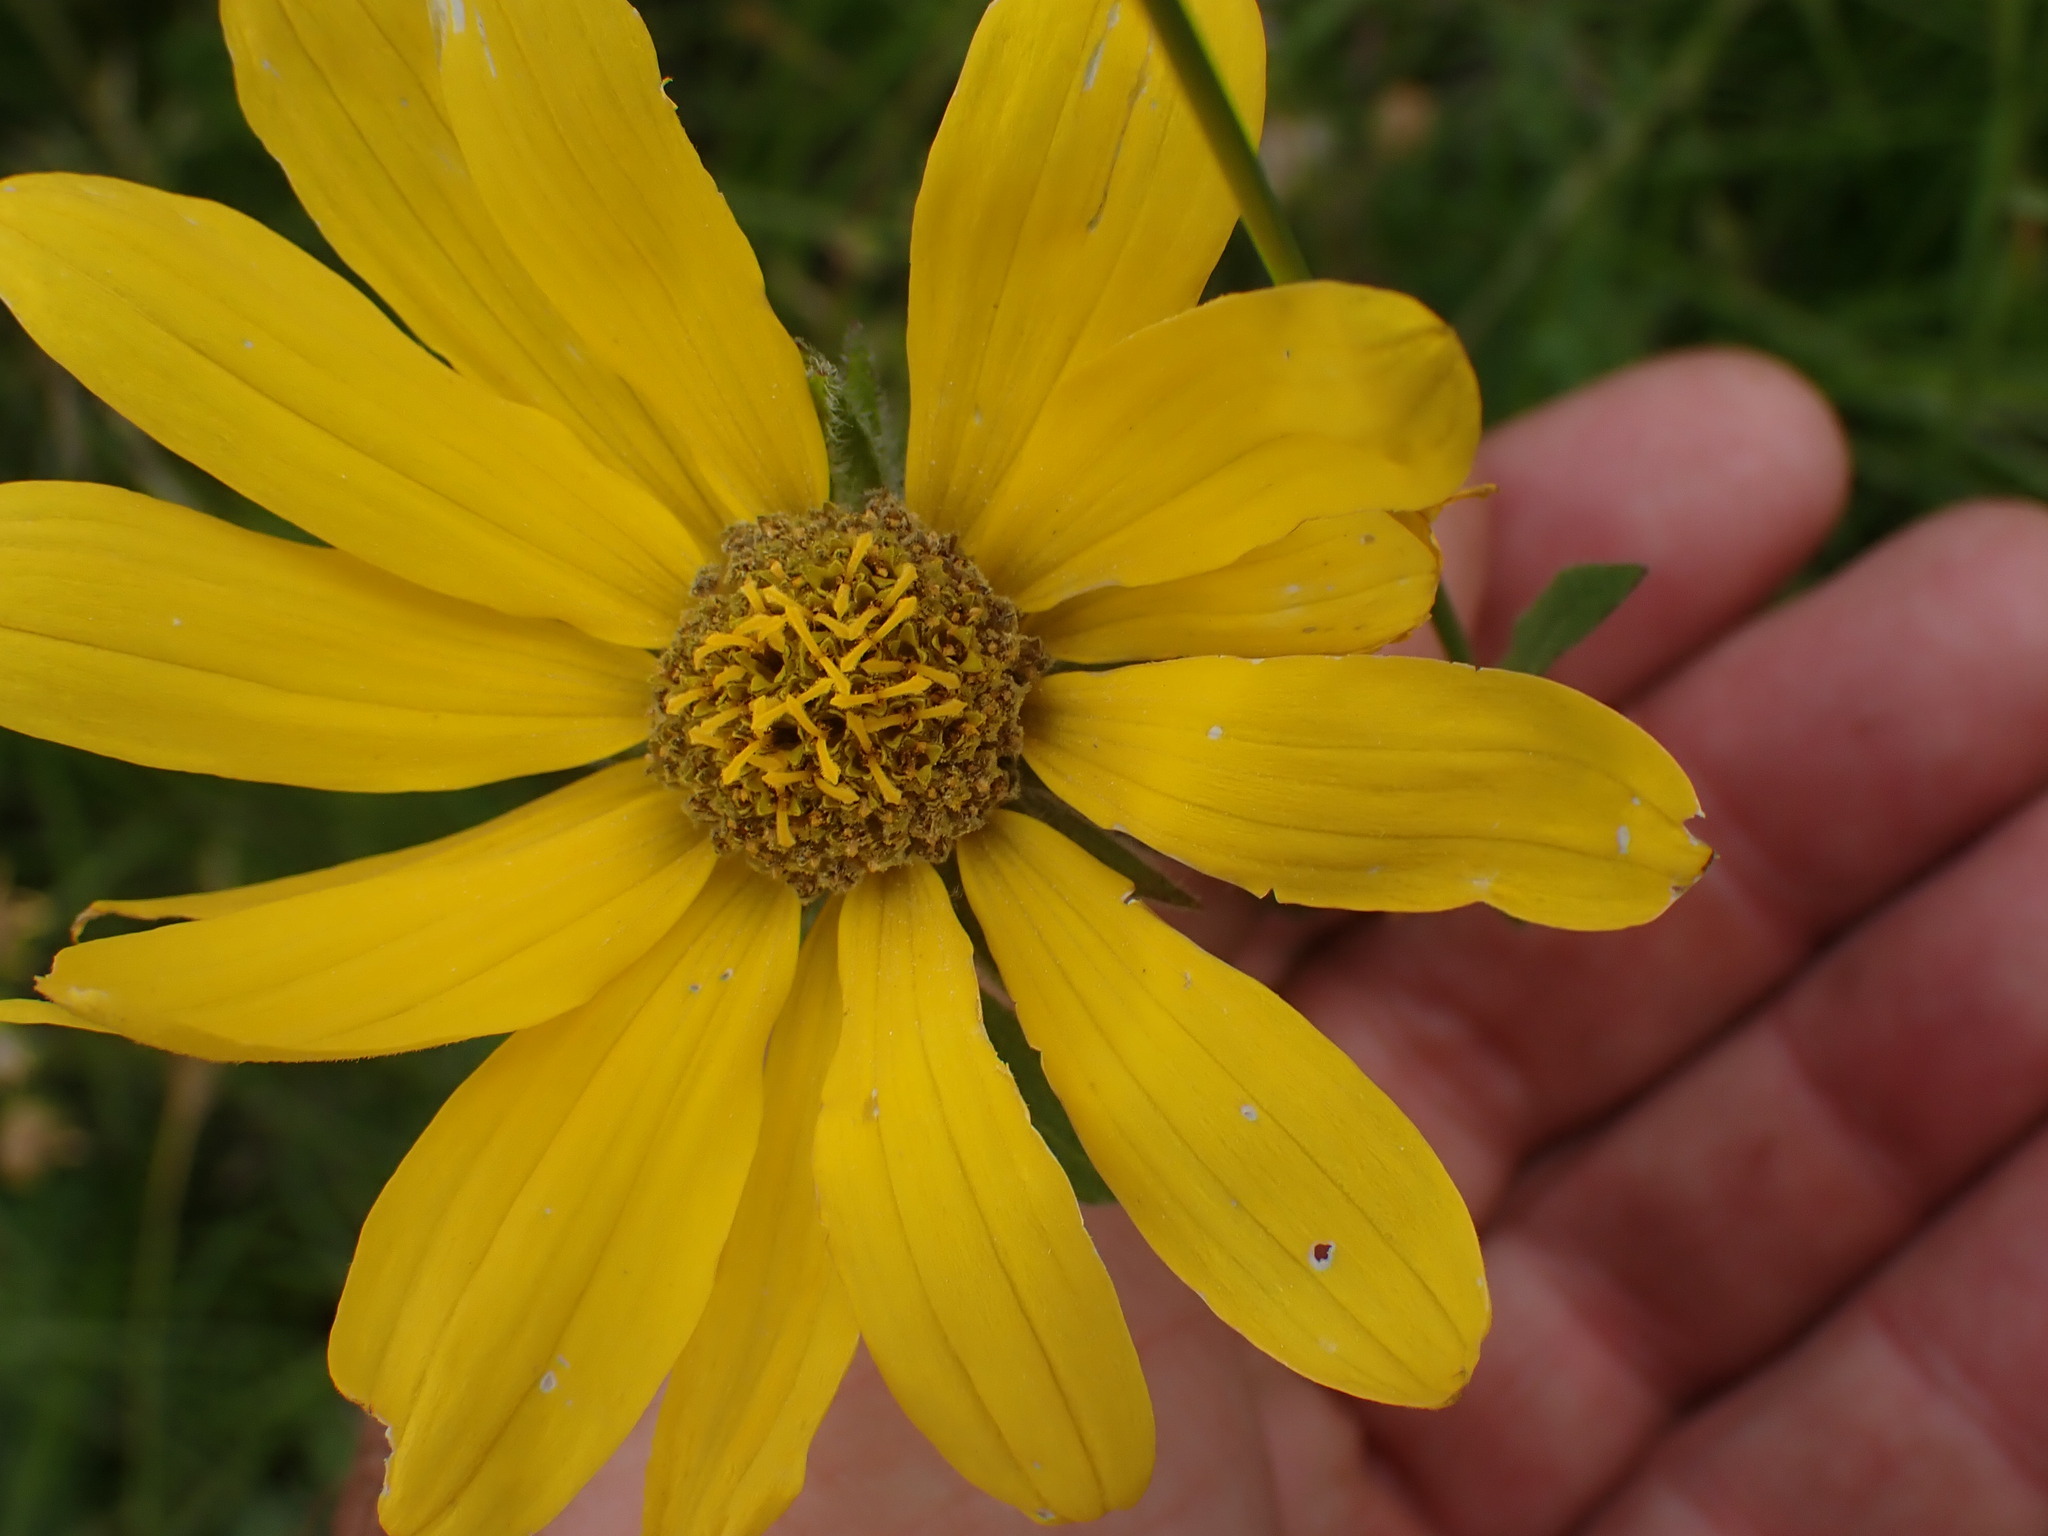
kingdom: Plantae
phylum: Tracheophyta
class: Magnoliopsida
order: Asterales
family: Asteraceae
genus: Helianthella
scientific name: Helianthella uniflora
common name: Rocky mountain dwarf sunflower
